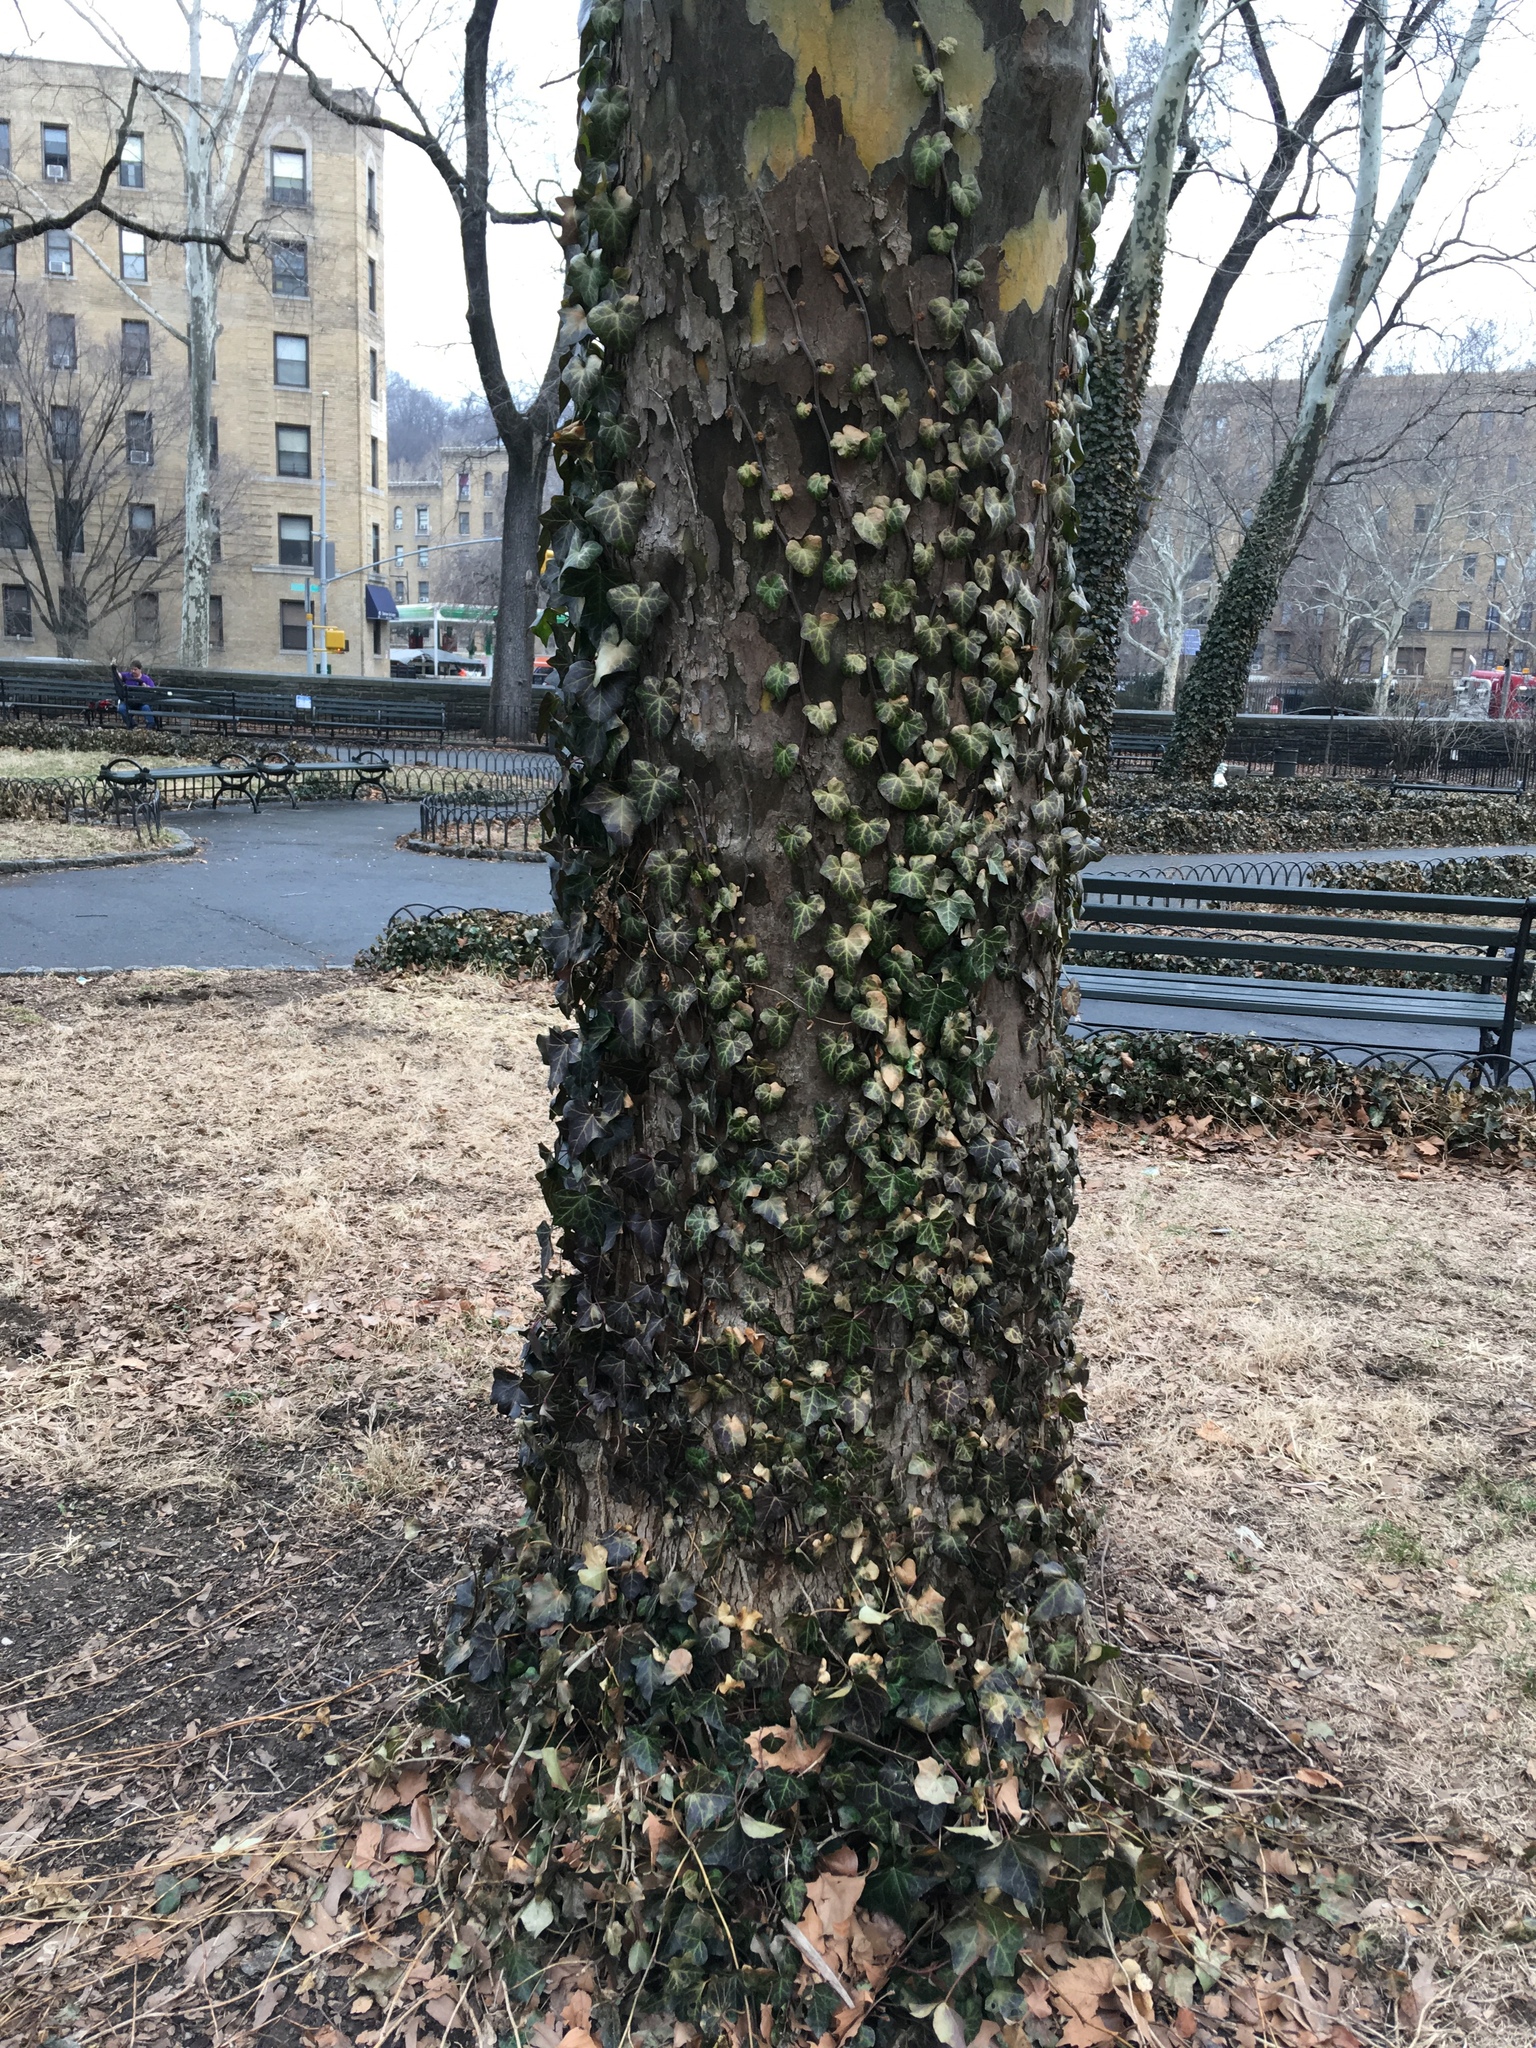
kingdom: Plantae
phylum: Tracheophyta
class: Magnoliopsida
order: Apiales
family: Araliaceae
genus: Hedera
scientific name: Hedera helix
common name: Ivy
